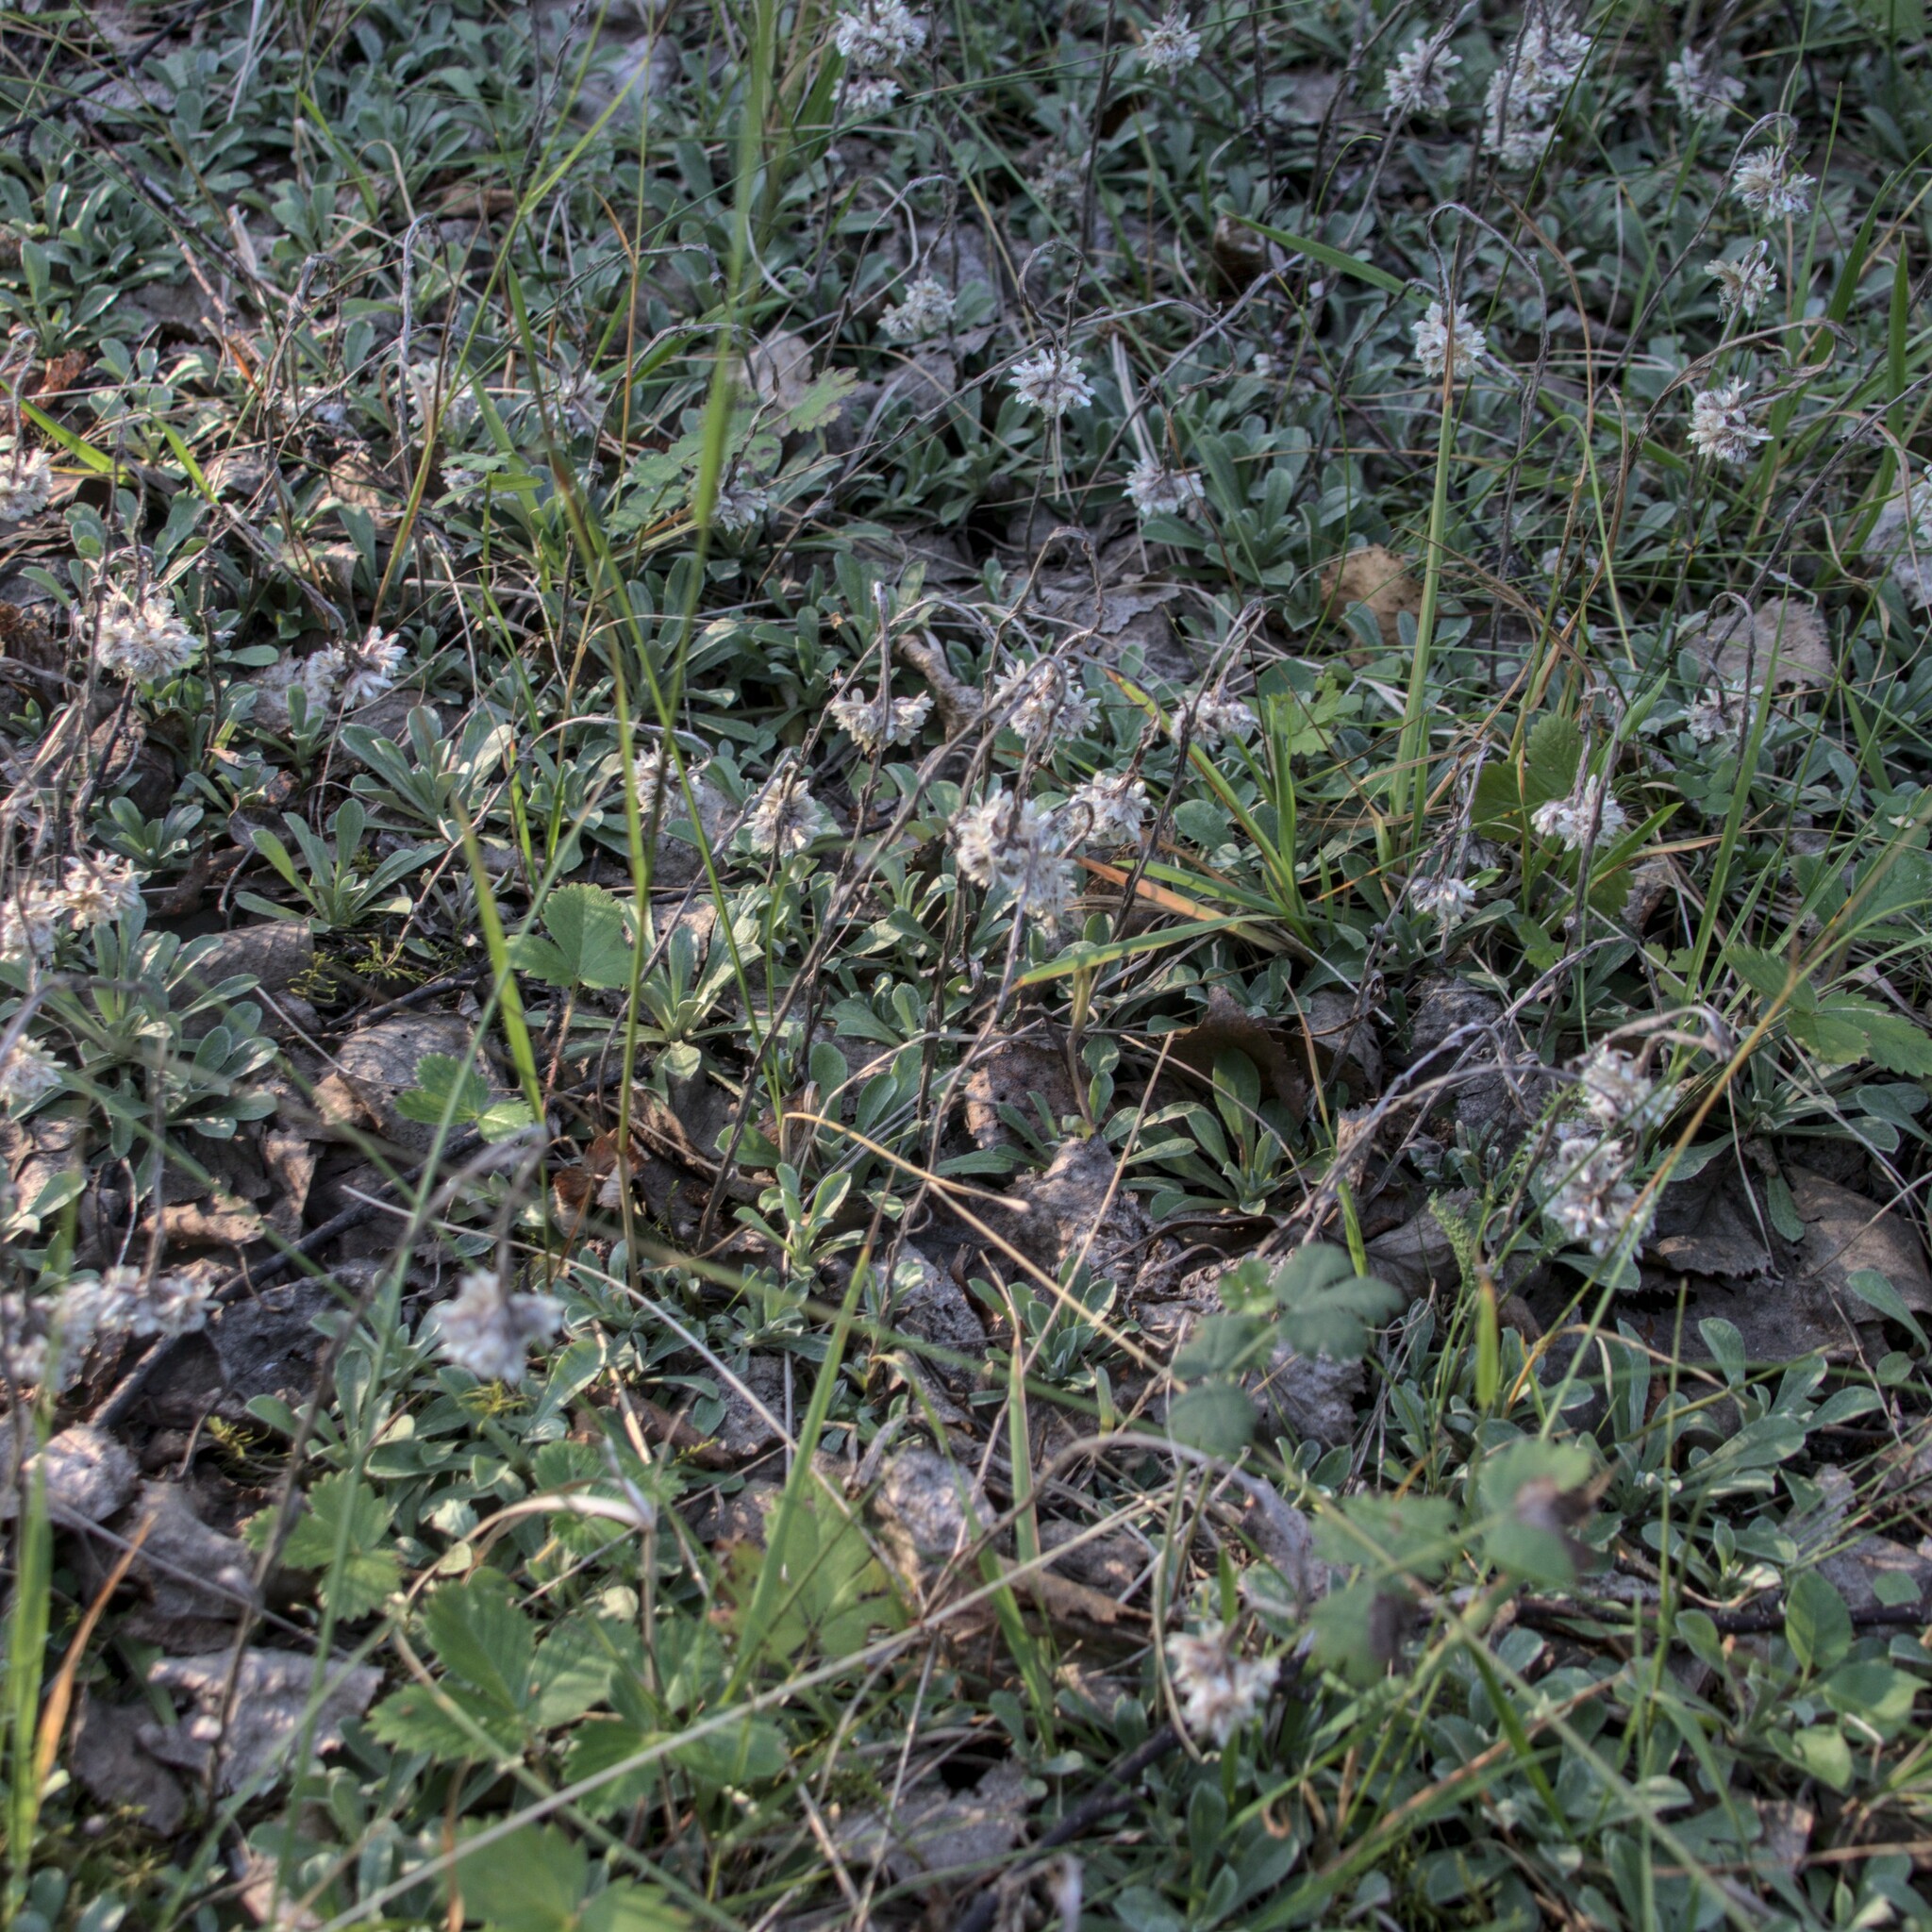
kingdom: Plantae
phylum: Tracheophyta
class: Magnoliopsida
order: Asterales
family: Asteraceae
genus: Antennaria
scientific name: Antennaria dioica
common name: Mountain everlasting
